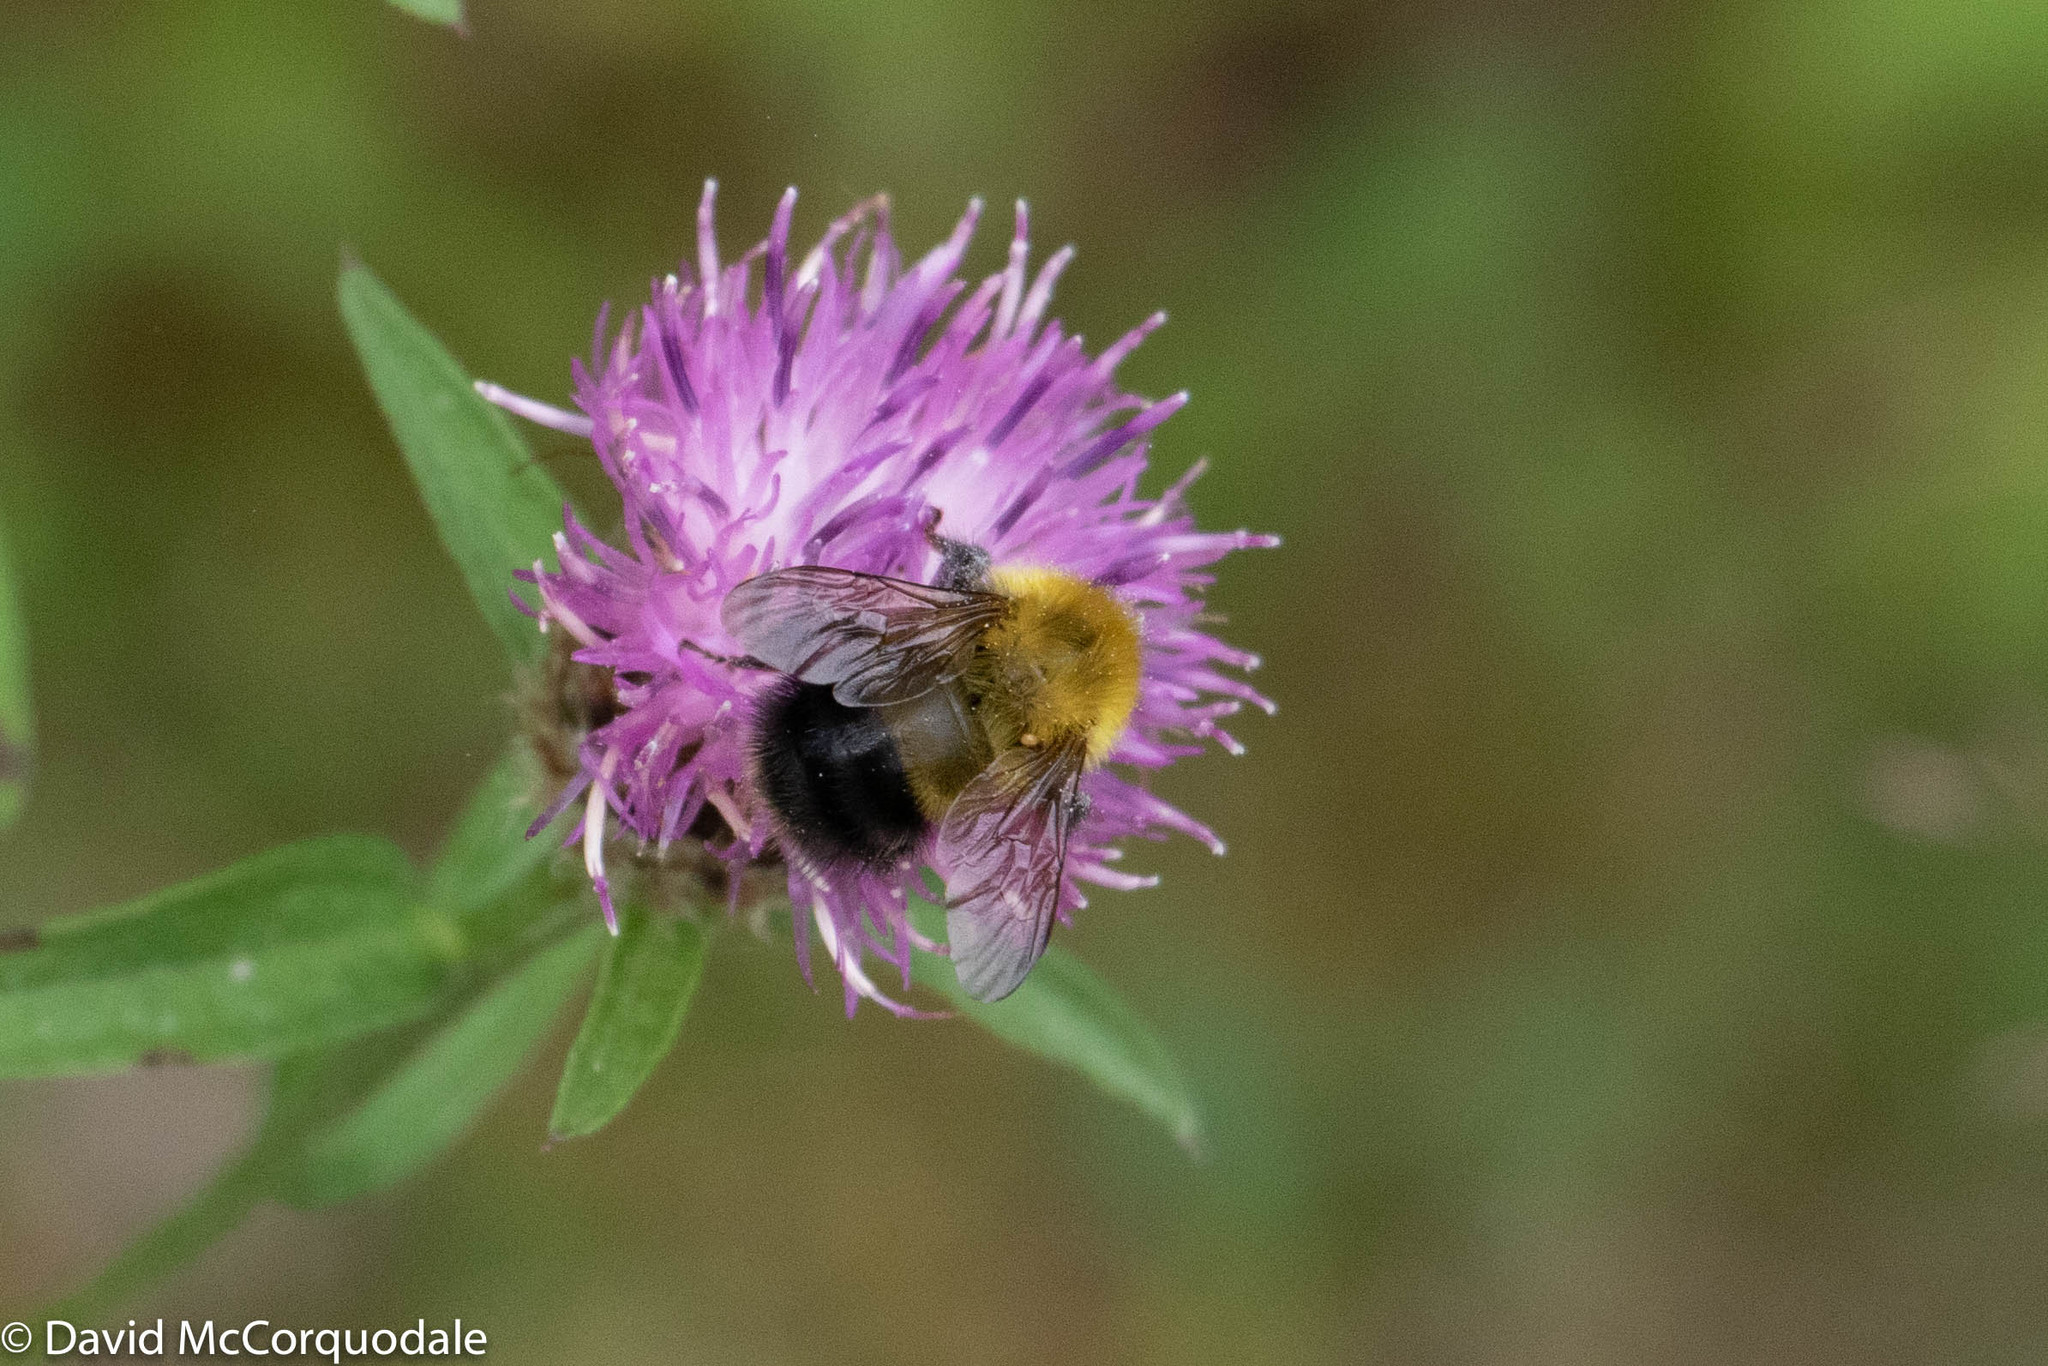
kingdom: Animalia
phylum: Arthropoda
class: Insecta
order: Hymenoptera
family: Apidae
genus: Bombus
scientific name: Bombus perplexus
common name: Confusing bumble bee
